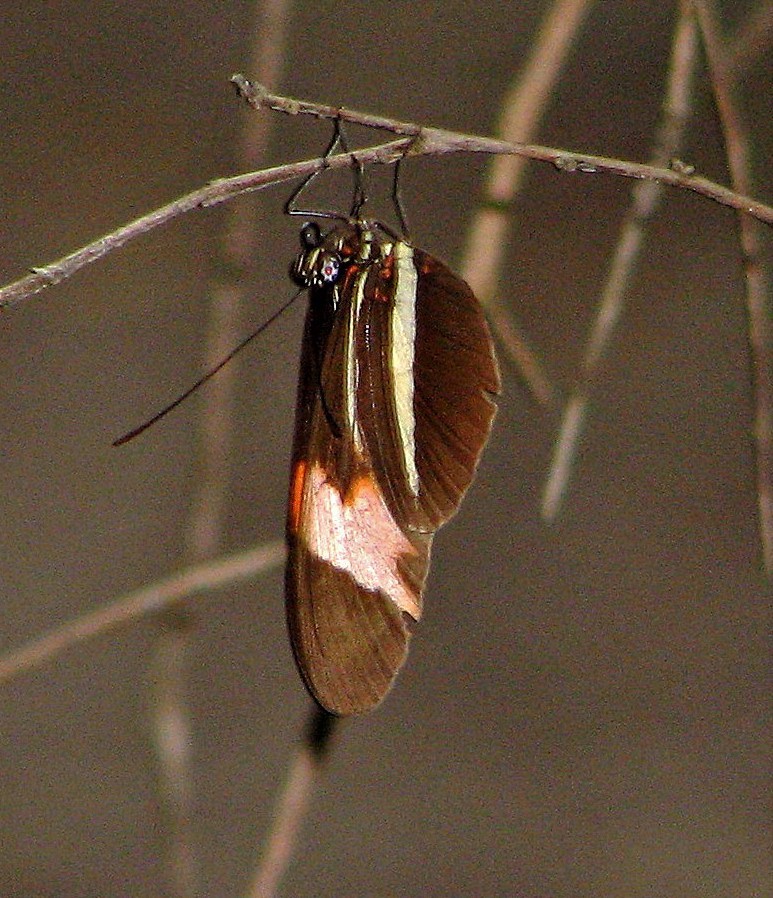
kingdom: Animalia
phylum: Arthropoda
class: Insecta
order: Lepidoptera
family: Nymphalidae
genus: Heliconius
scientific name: Heliconius erato
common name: Common patch longwing
